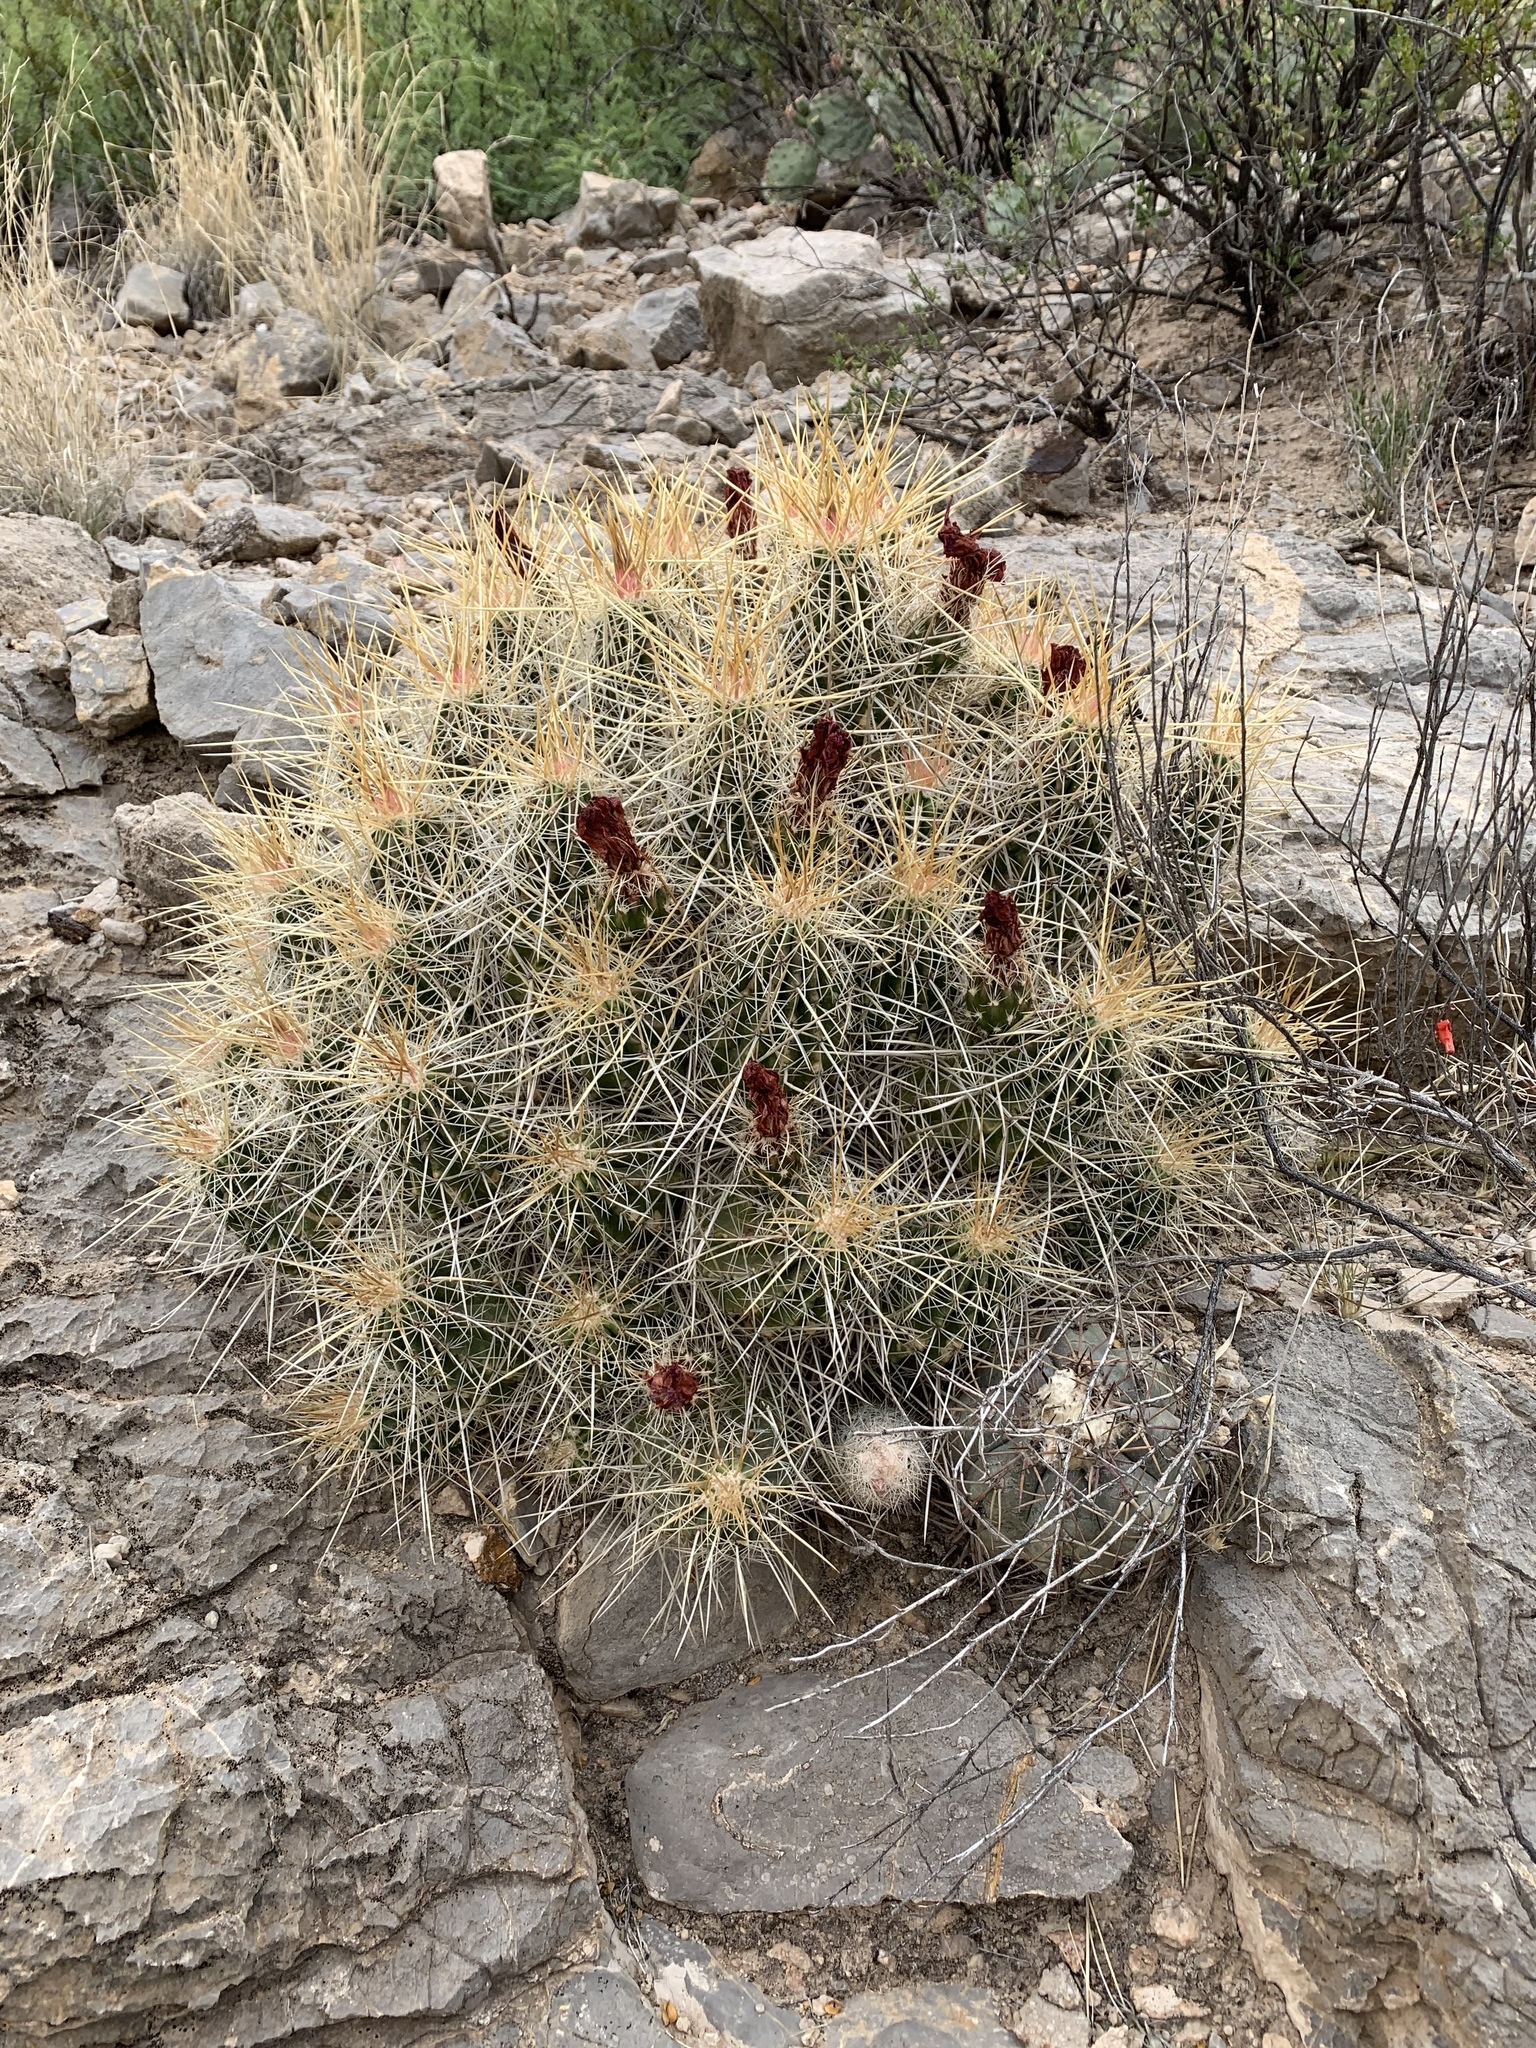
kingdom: Plantae
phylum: Tracheophyta
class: Magnoliopsida
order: Caryophyllales
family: Cactaceae
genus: Echinocereus
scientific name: Echinocereus stramineus
